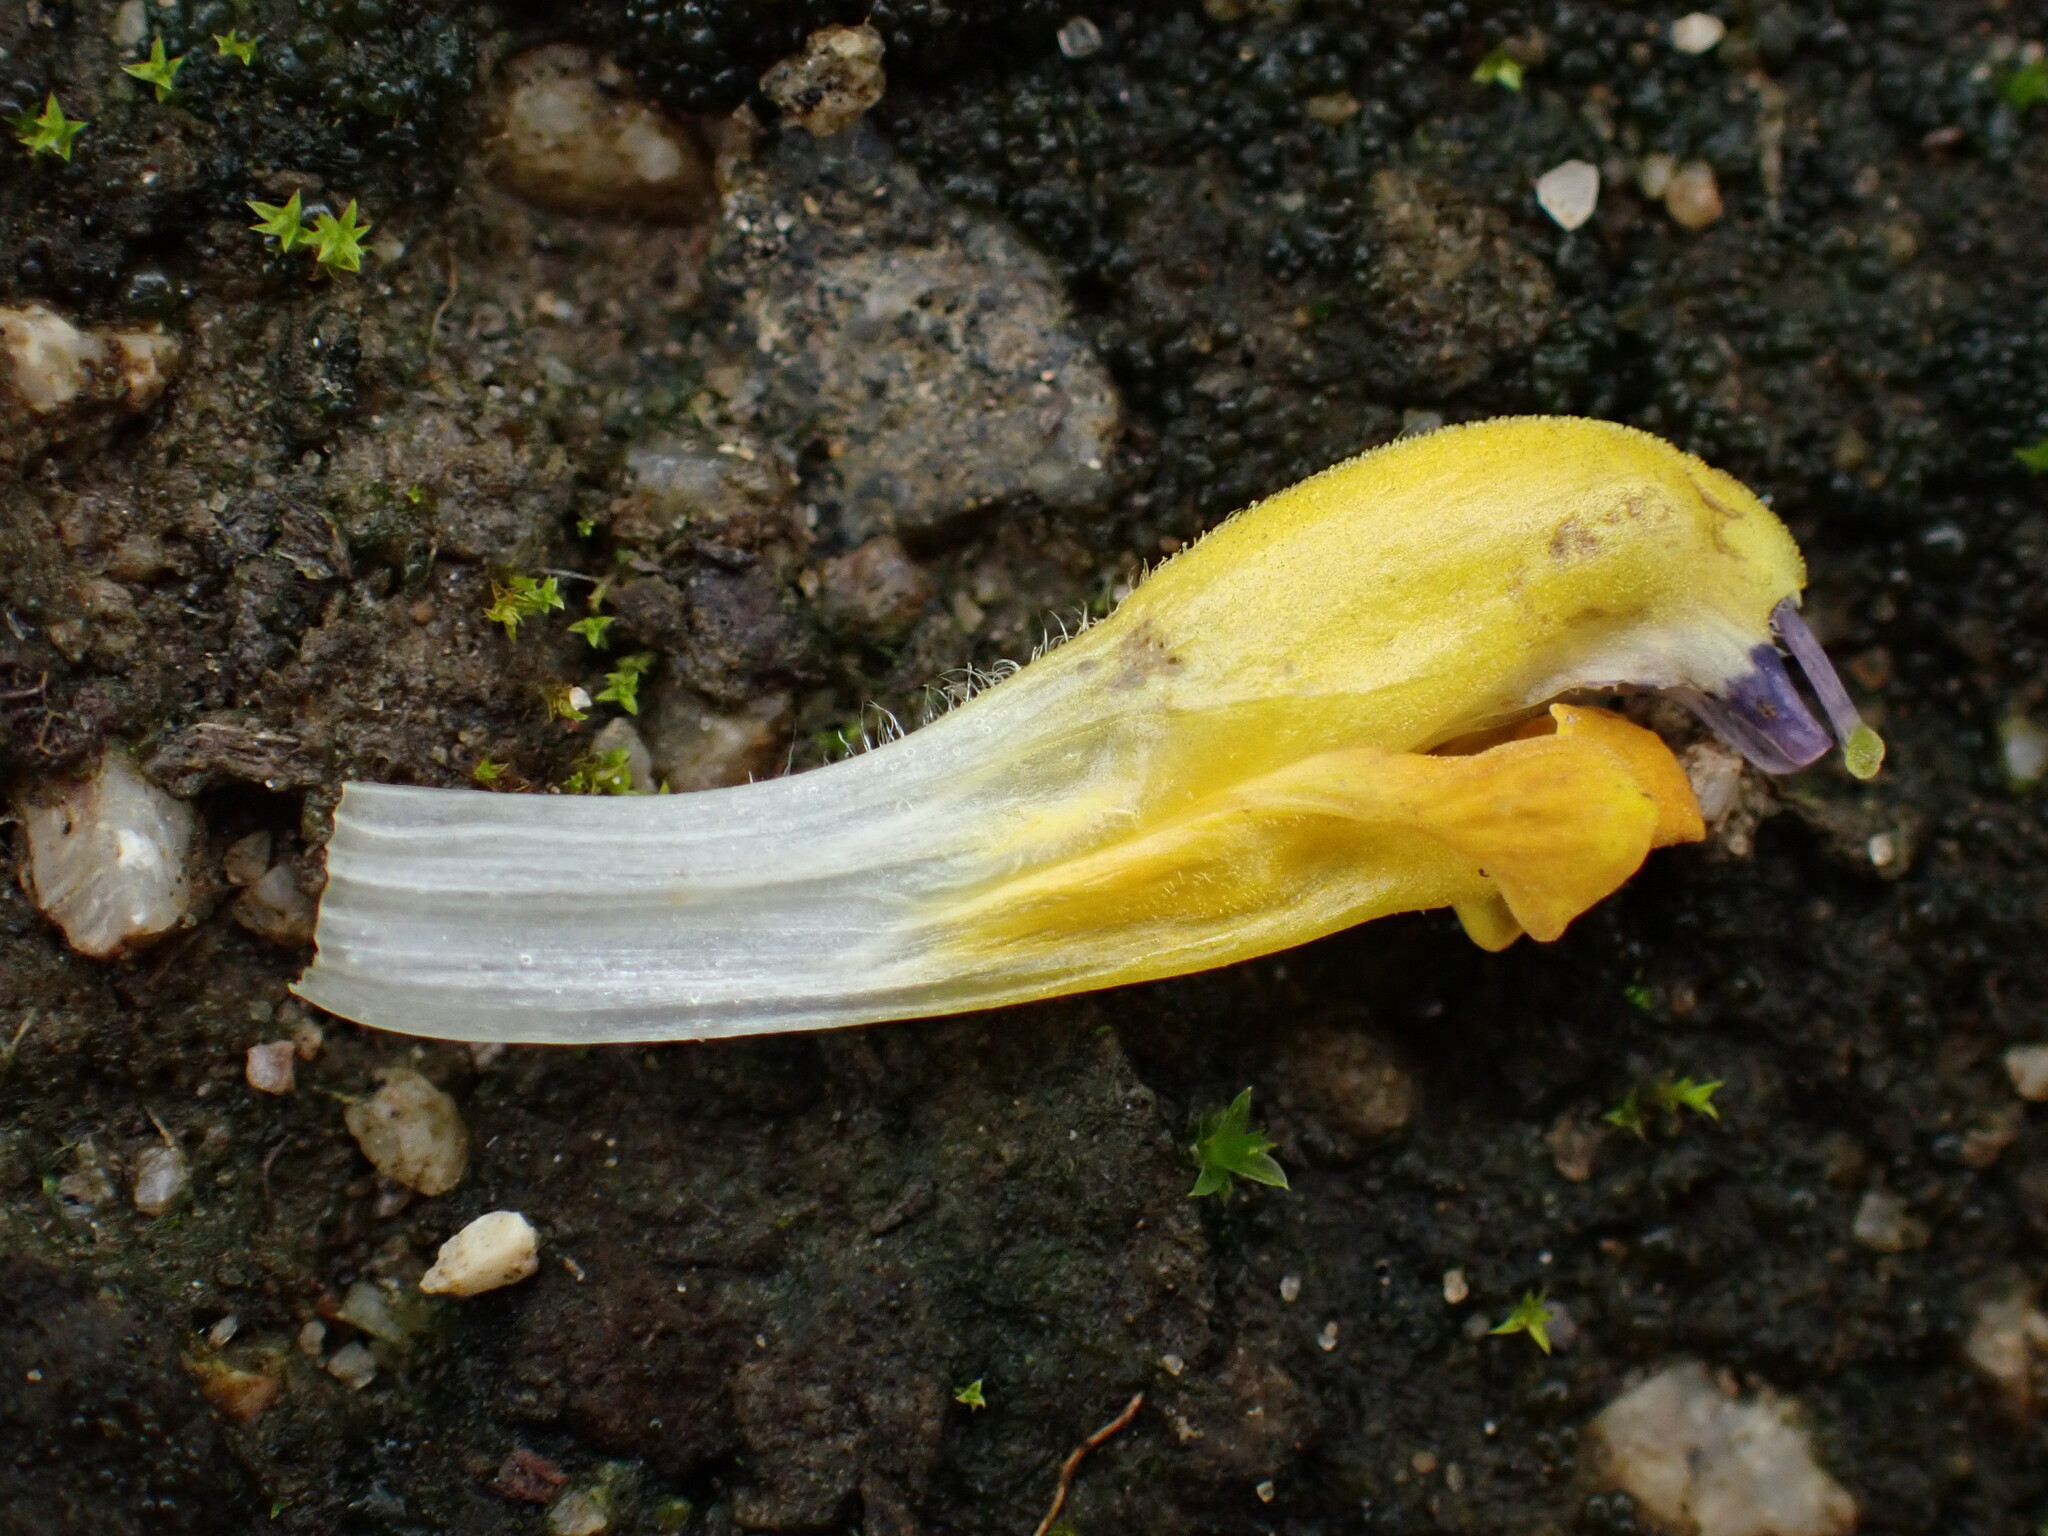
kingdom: Plantae
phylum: Tracheophyta
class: Magnoliopsida
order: Lamiales
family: Orobanchaceae
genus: Rhinanthus
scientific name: Rhinanthus serotinus
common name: Late-flowering yellow rattle
